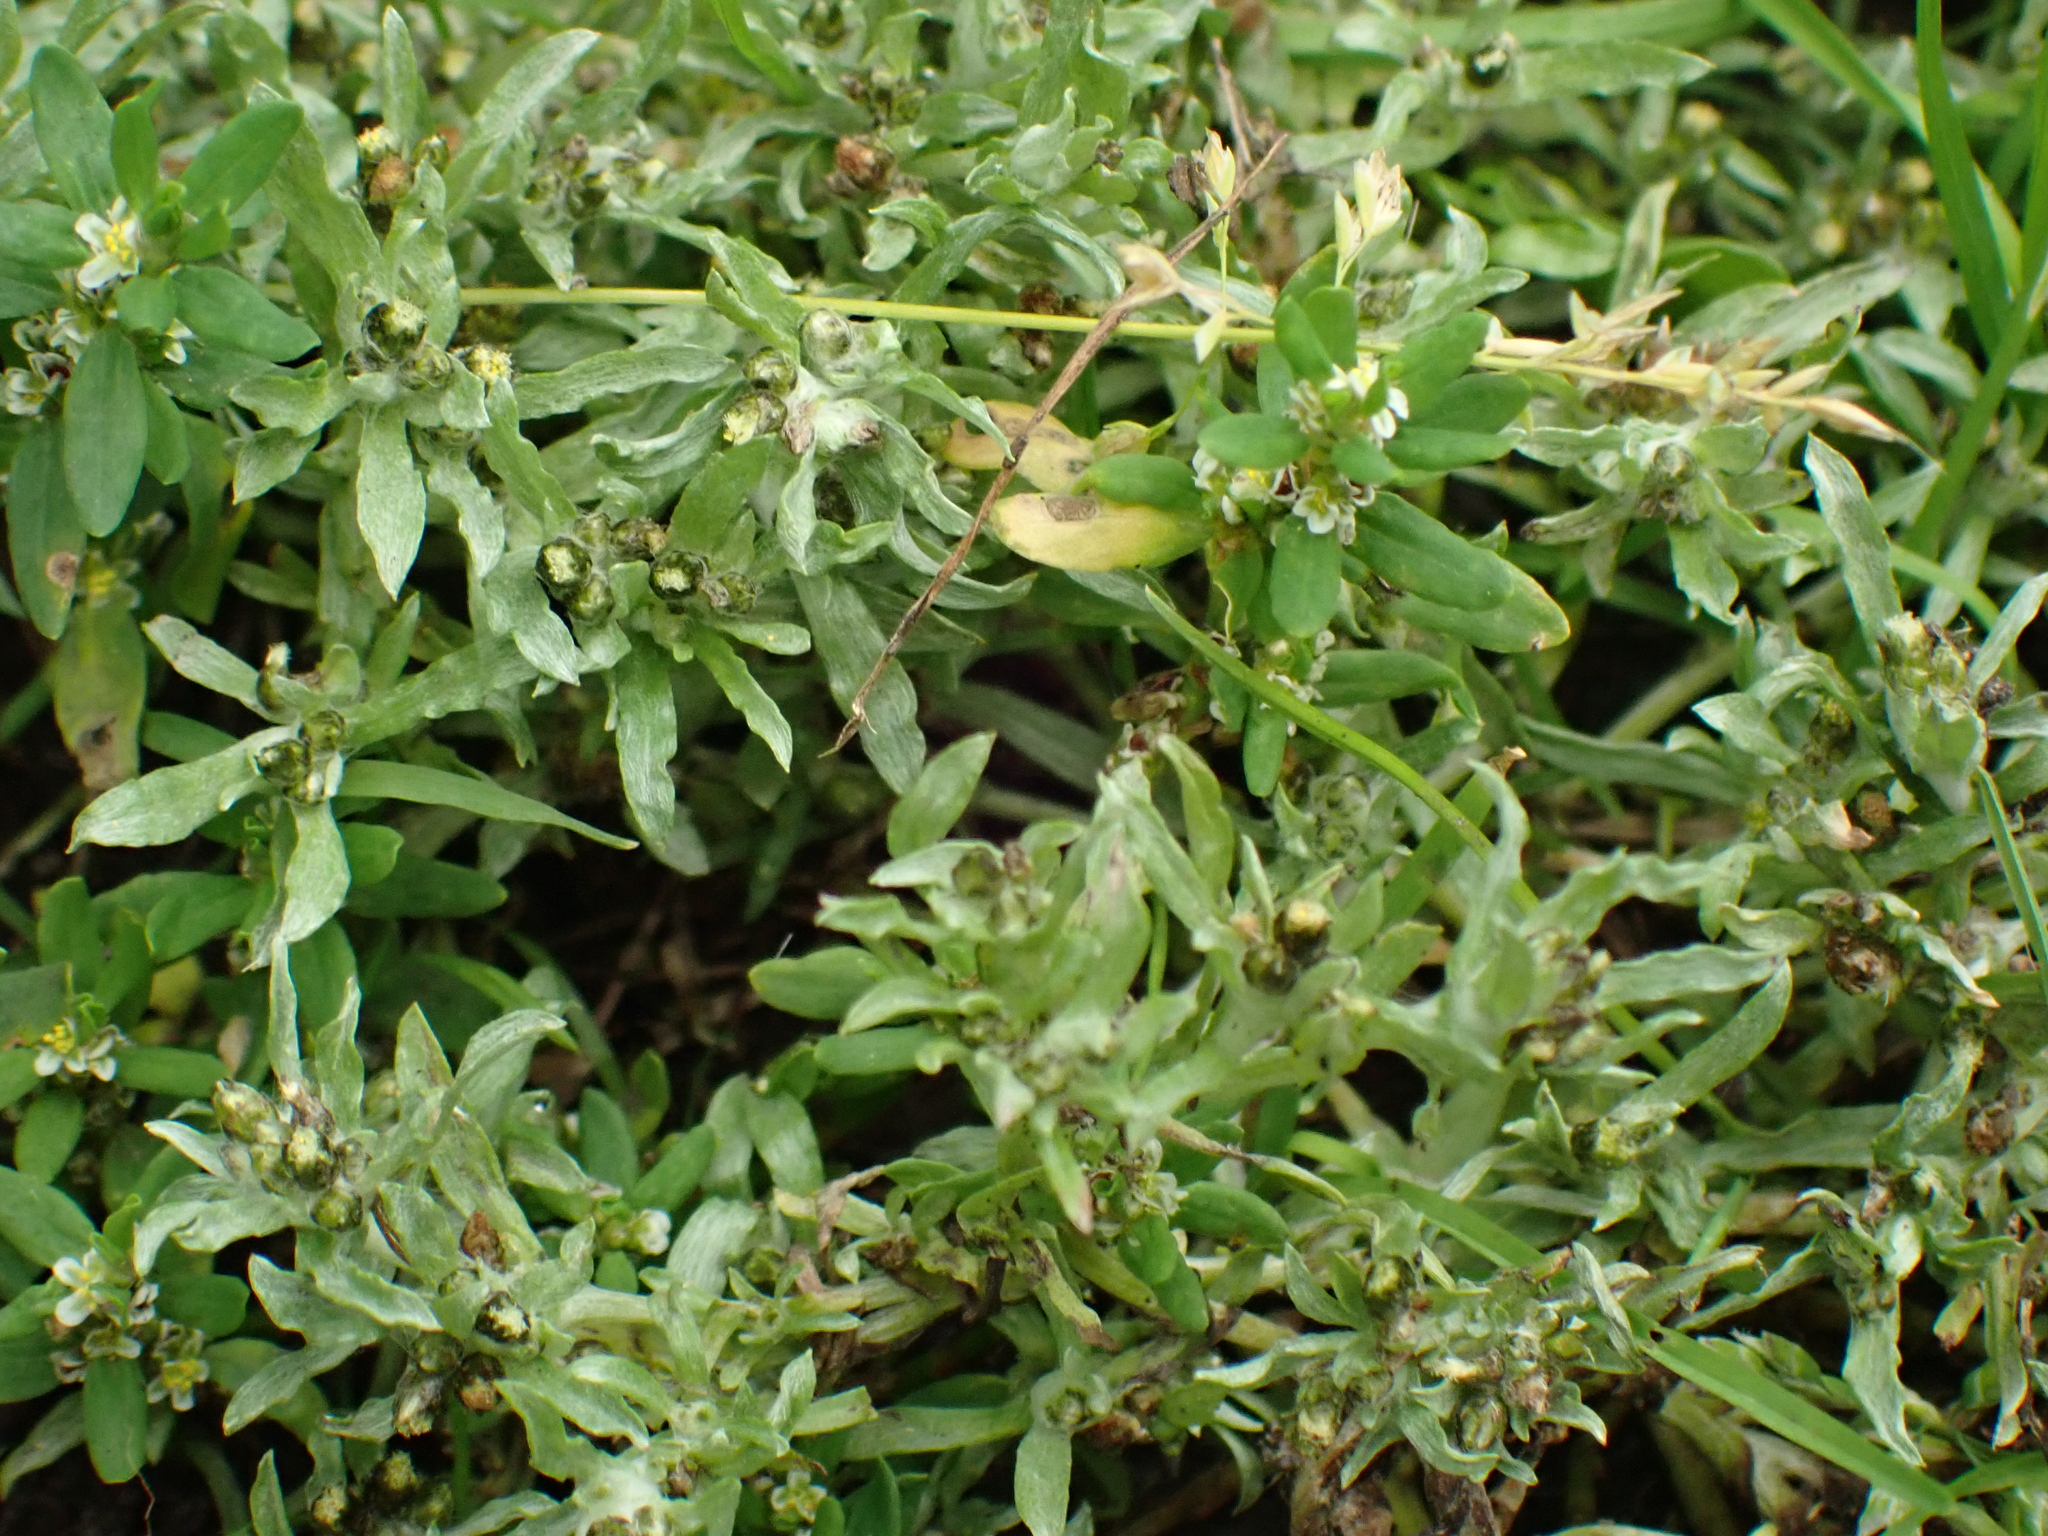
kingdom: Plantae
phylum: Tracheophyta
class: Magnoliopsida
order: Asterales
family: Asteraceae
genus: Gnaphalium
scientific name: Gnaphalium uliginosum
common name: Marsh cudweed
